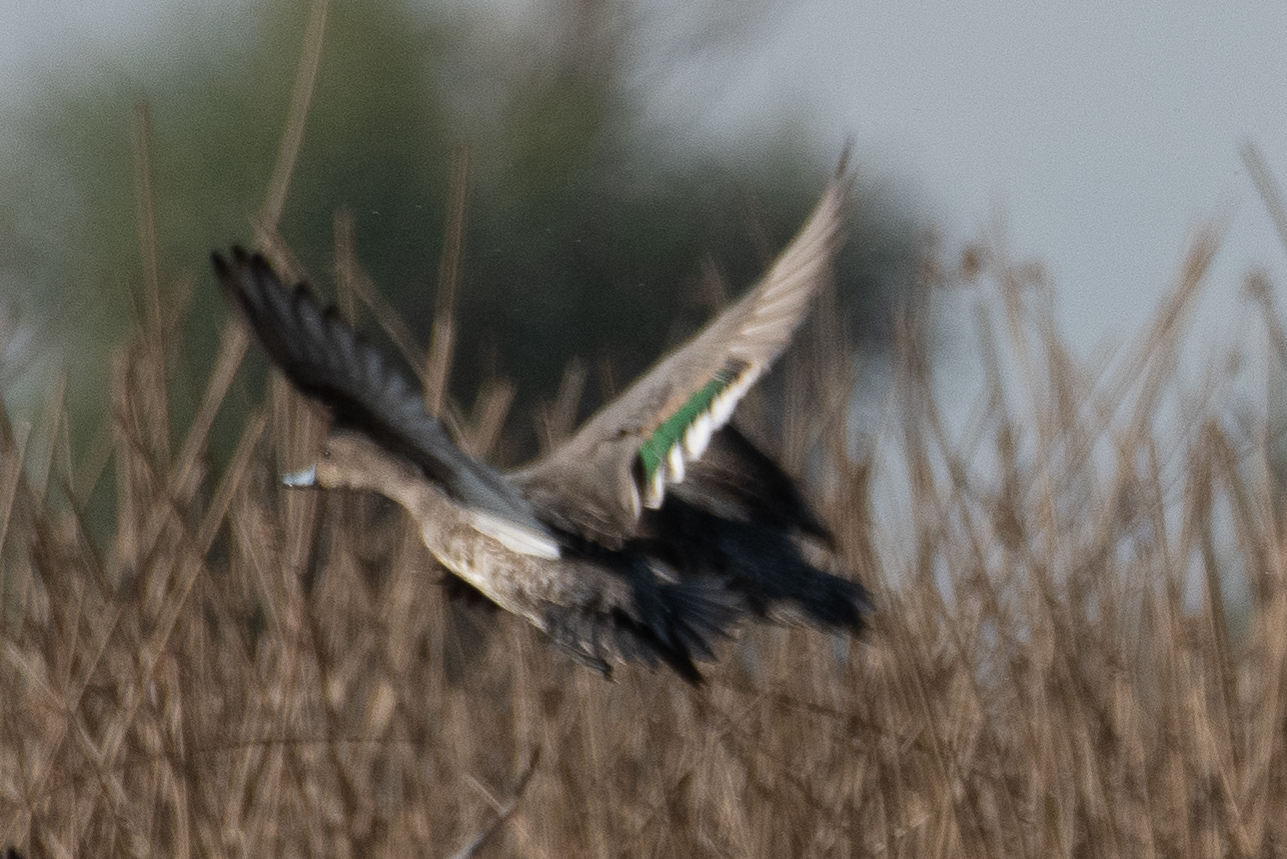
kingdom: Animalia
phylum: Chordata
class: Aves
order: Anseriformes
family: Anatidae
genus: Anas
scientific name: Anas crecca
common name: Eurasian teal
